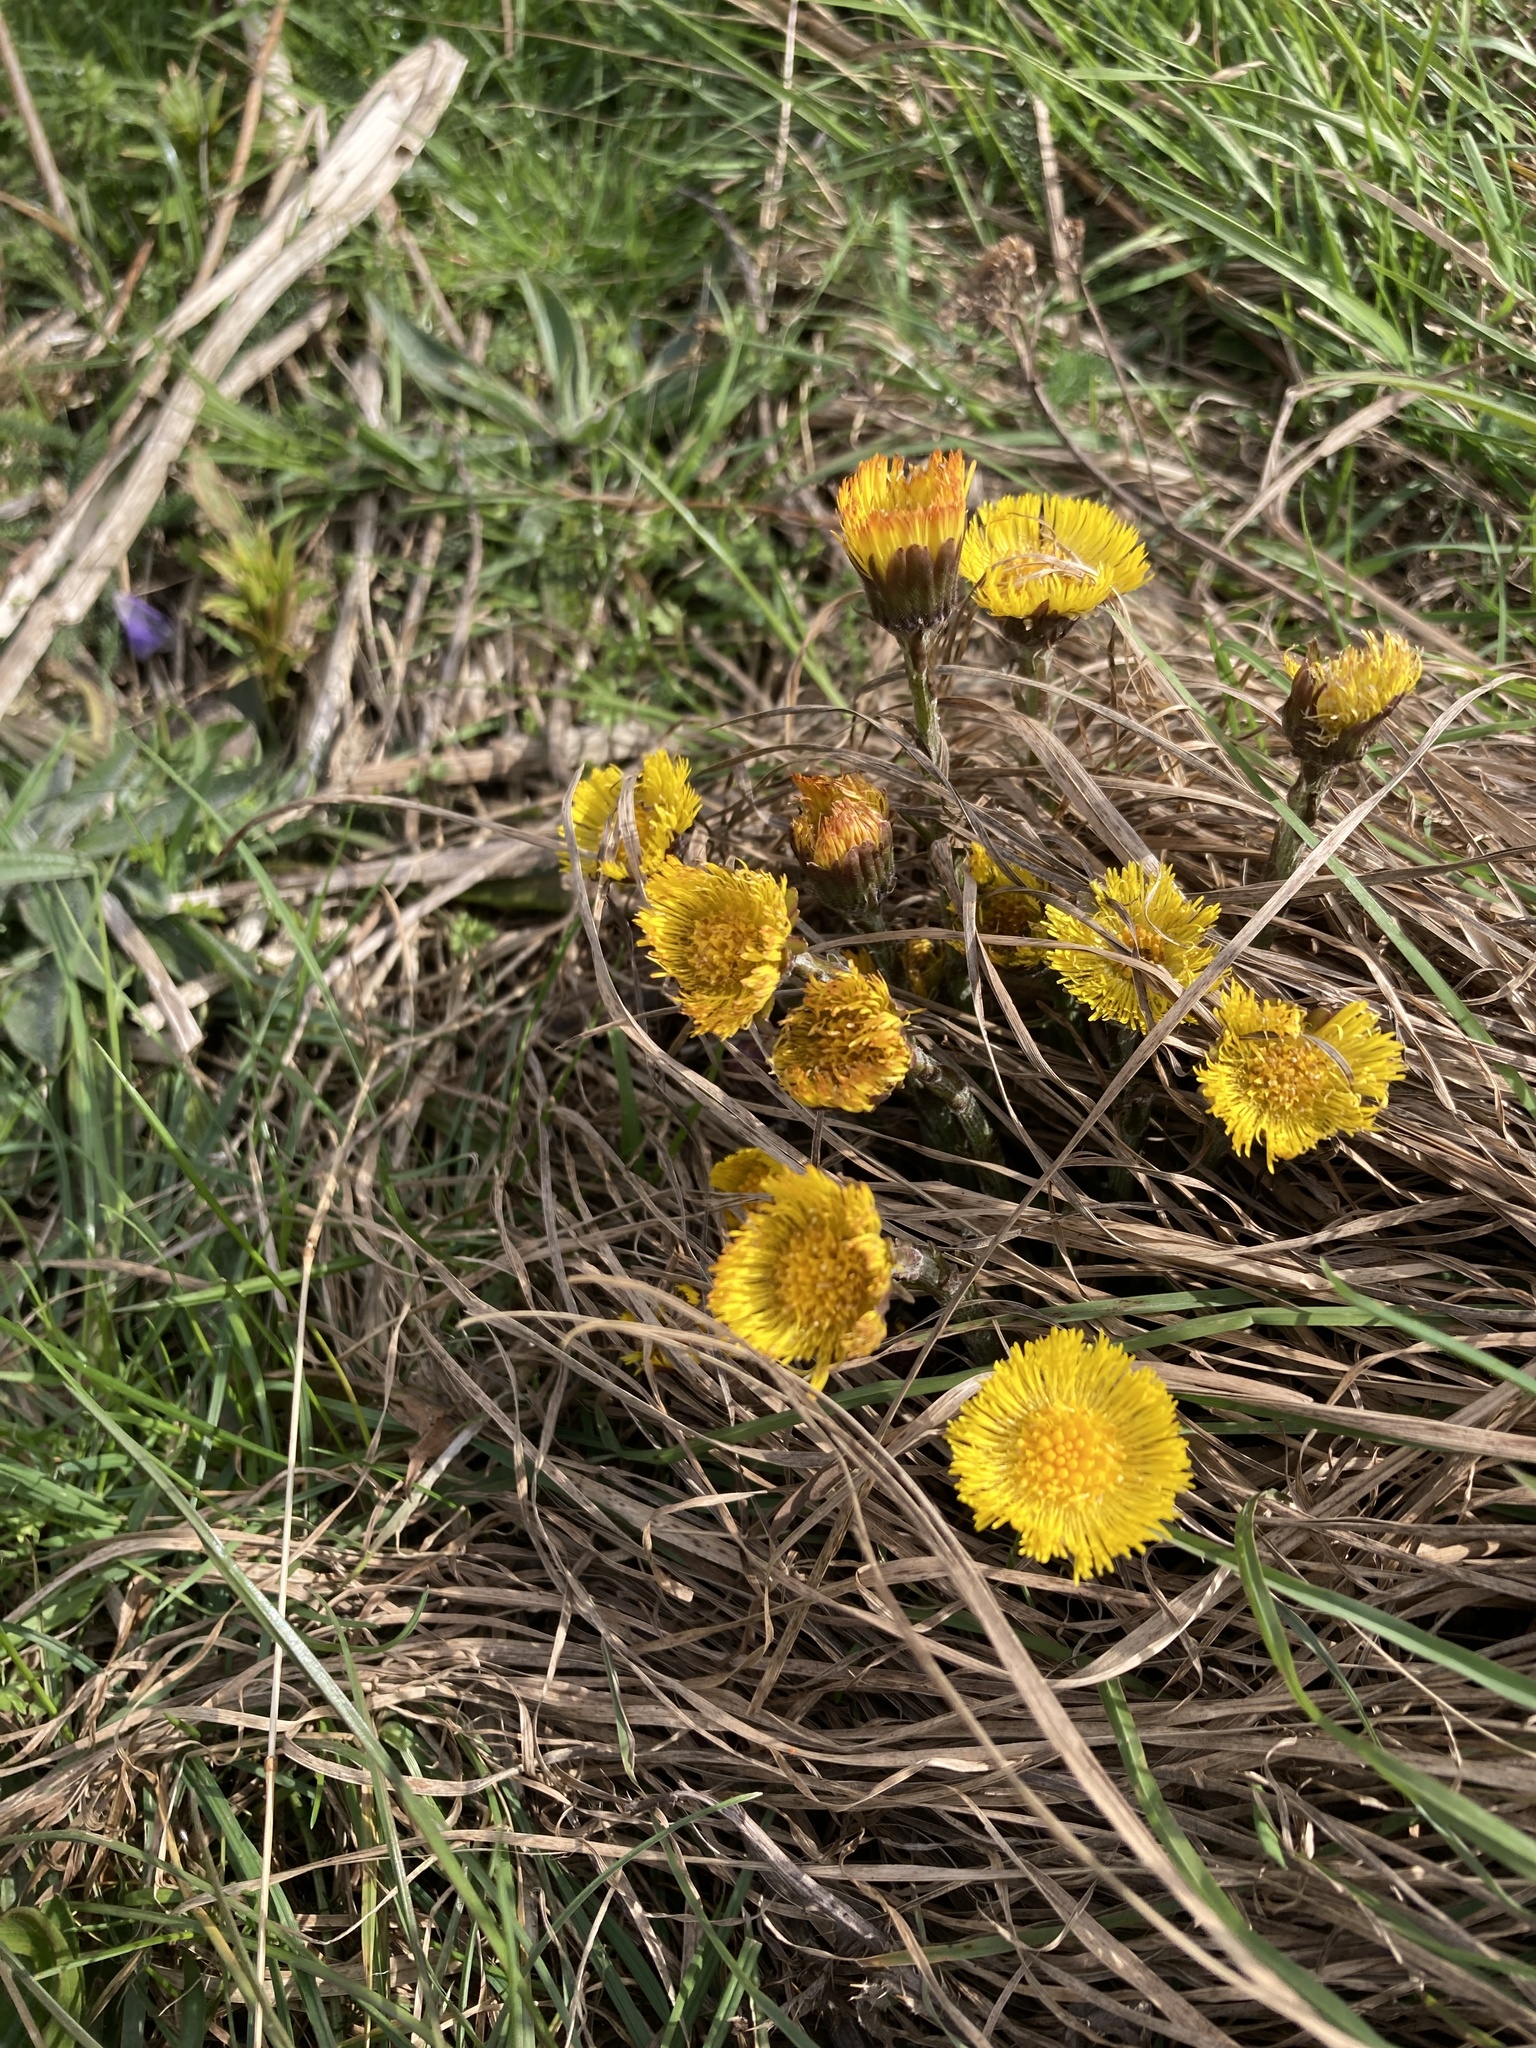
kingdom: Plantae
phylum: Tracheophyta
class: Magnoliopsida
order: Asterales
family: Asteraceae
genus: Tussilago
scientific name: Tussilago farfara
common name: Coltsfoot
